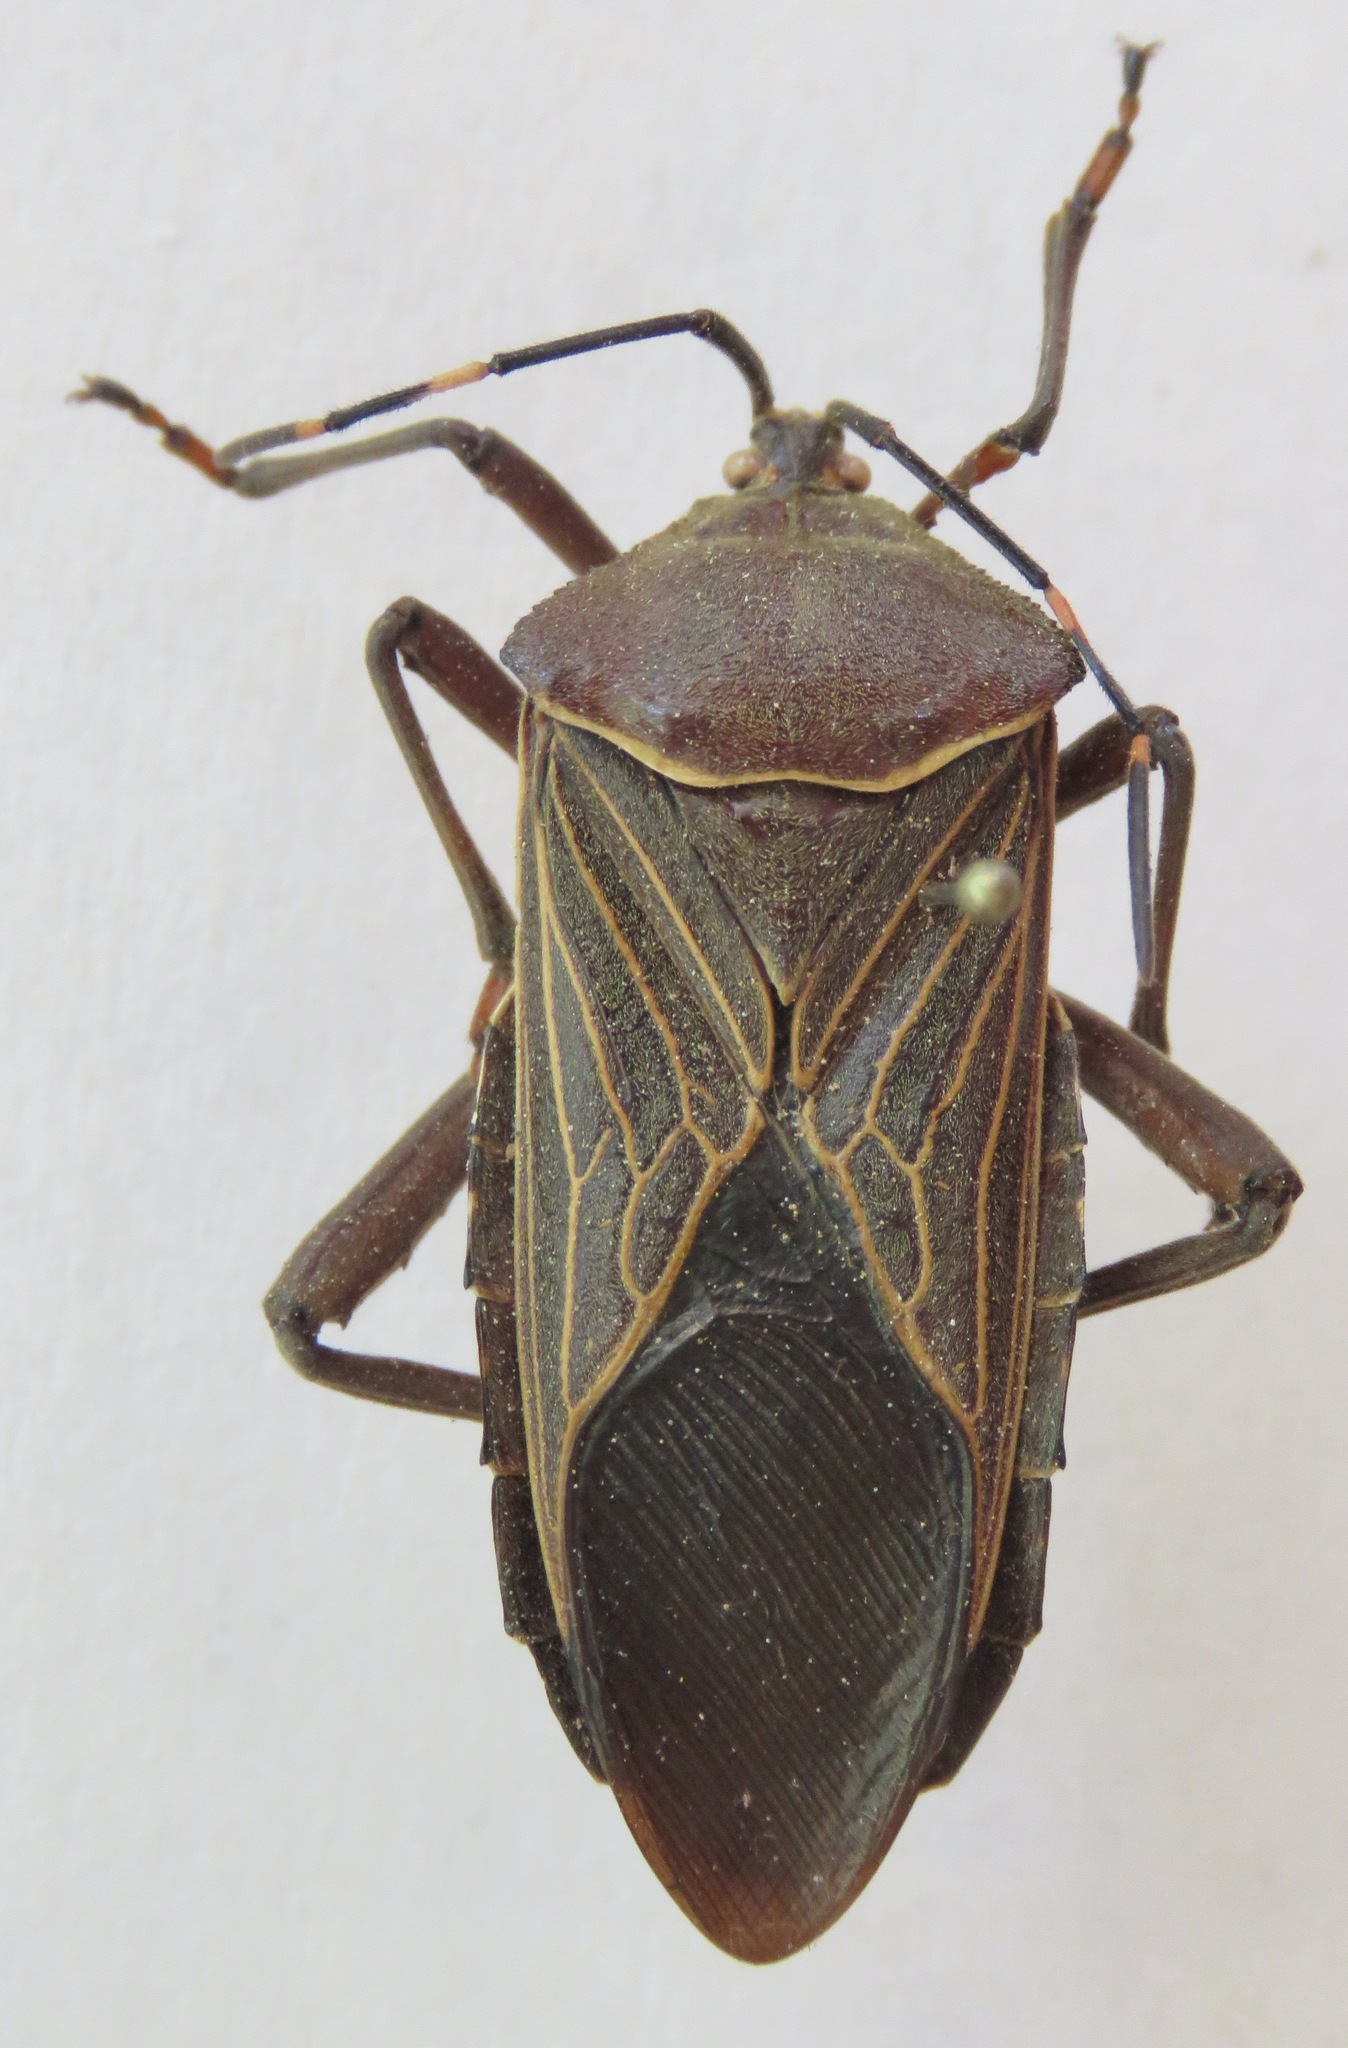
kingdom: Animalia
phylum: Arthropoda
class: Insecta
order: Hemiptera
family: Coreidae
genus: Pachylis
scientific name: Pachylis nervosus
